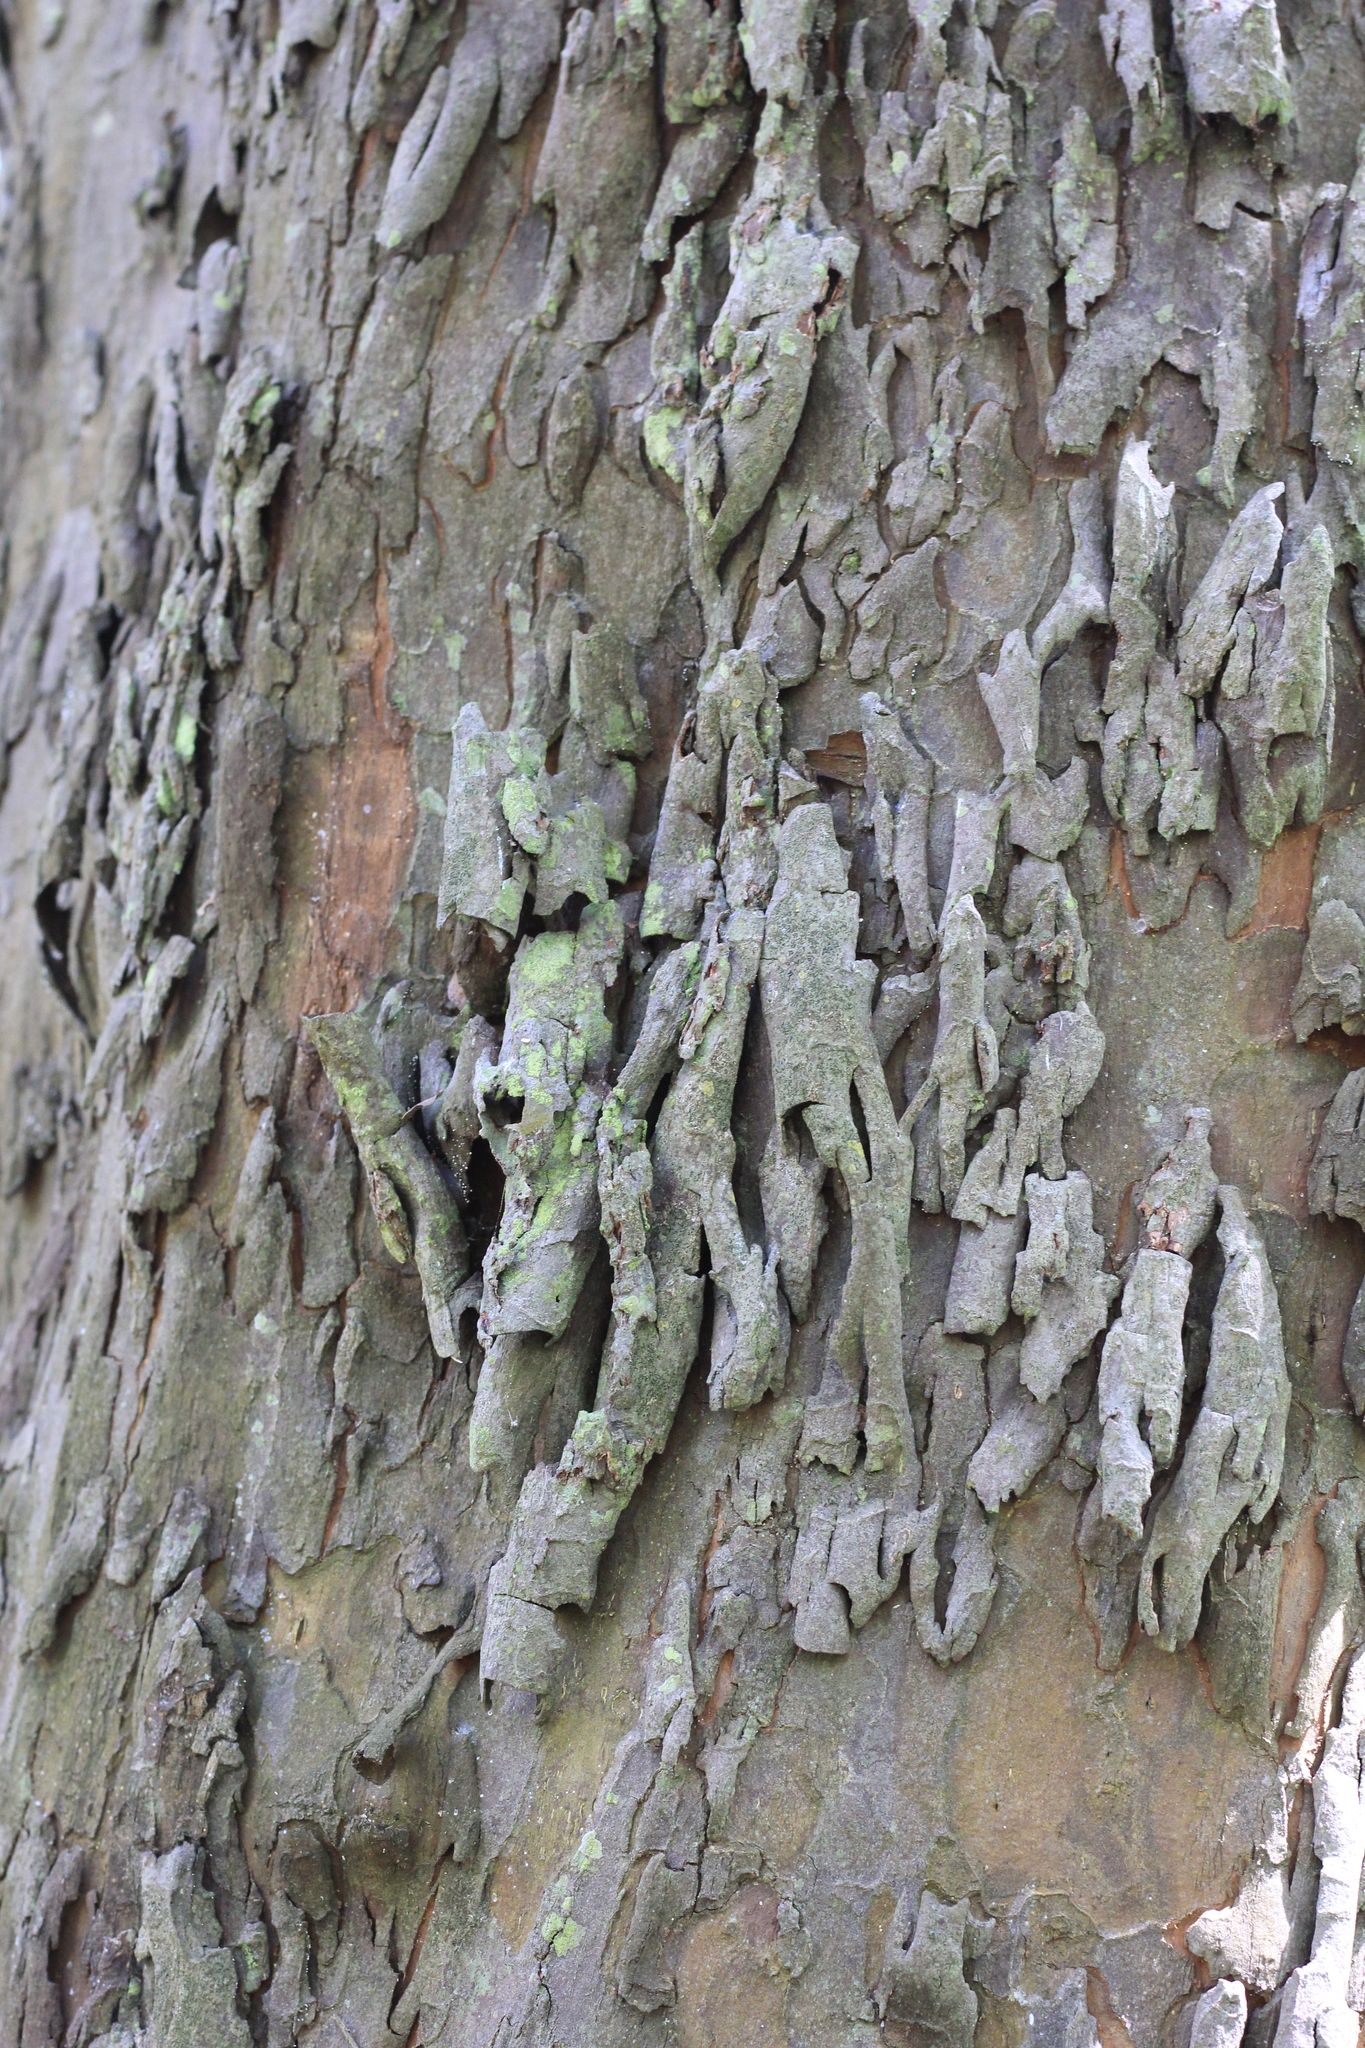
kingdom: Plantae
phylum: Tracheophyta
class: Magnoliopsida
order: Rosales
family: Rhamnaceae
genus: Scutia
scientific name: Scutia buxifolia
